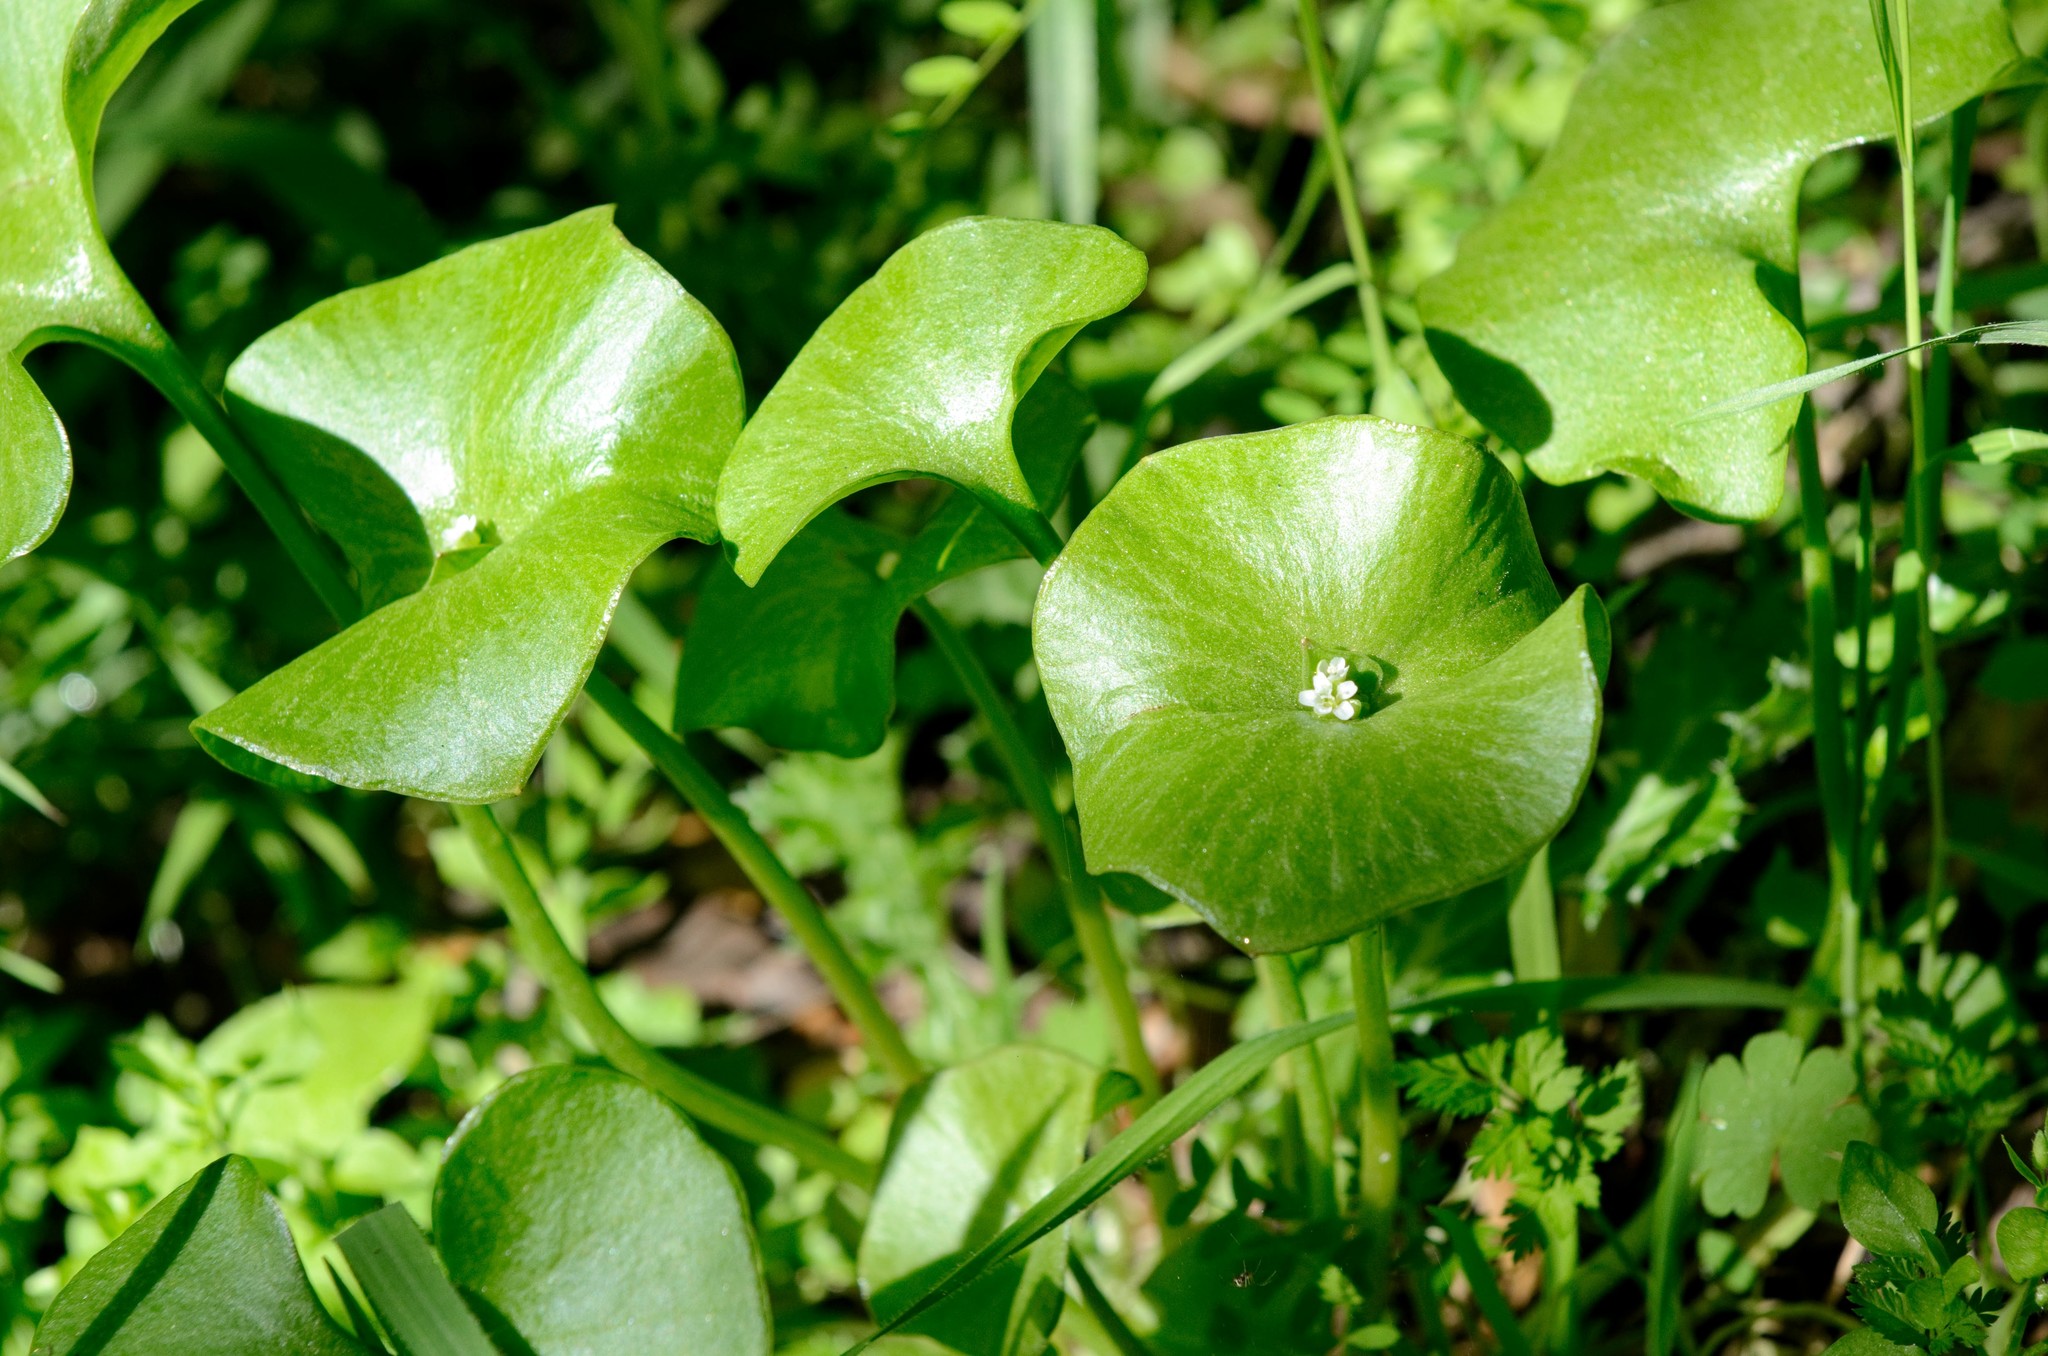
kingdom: Plantae
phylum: Tracheophyta
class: Magnoliopsida
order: Caryophyllales
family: Montiaceae
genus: Claytonia
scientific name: Claytonia perfoliata
